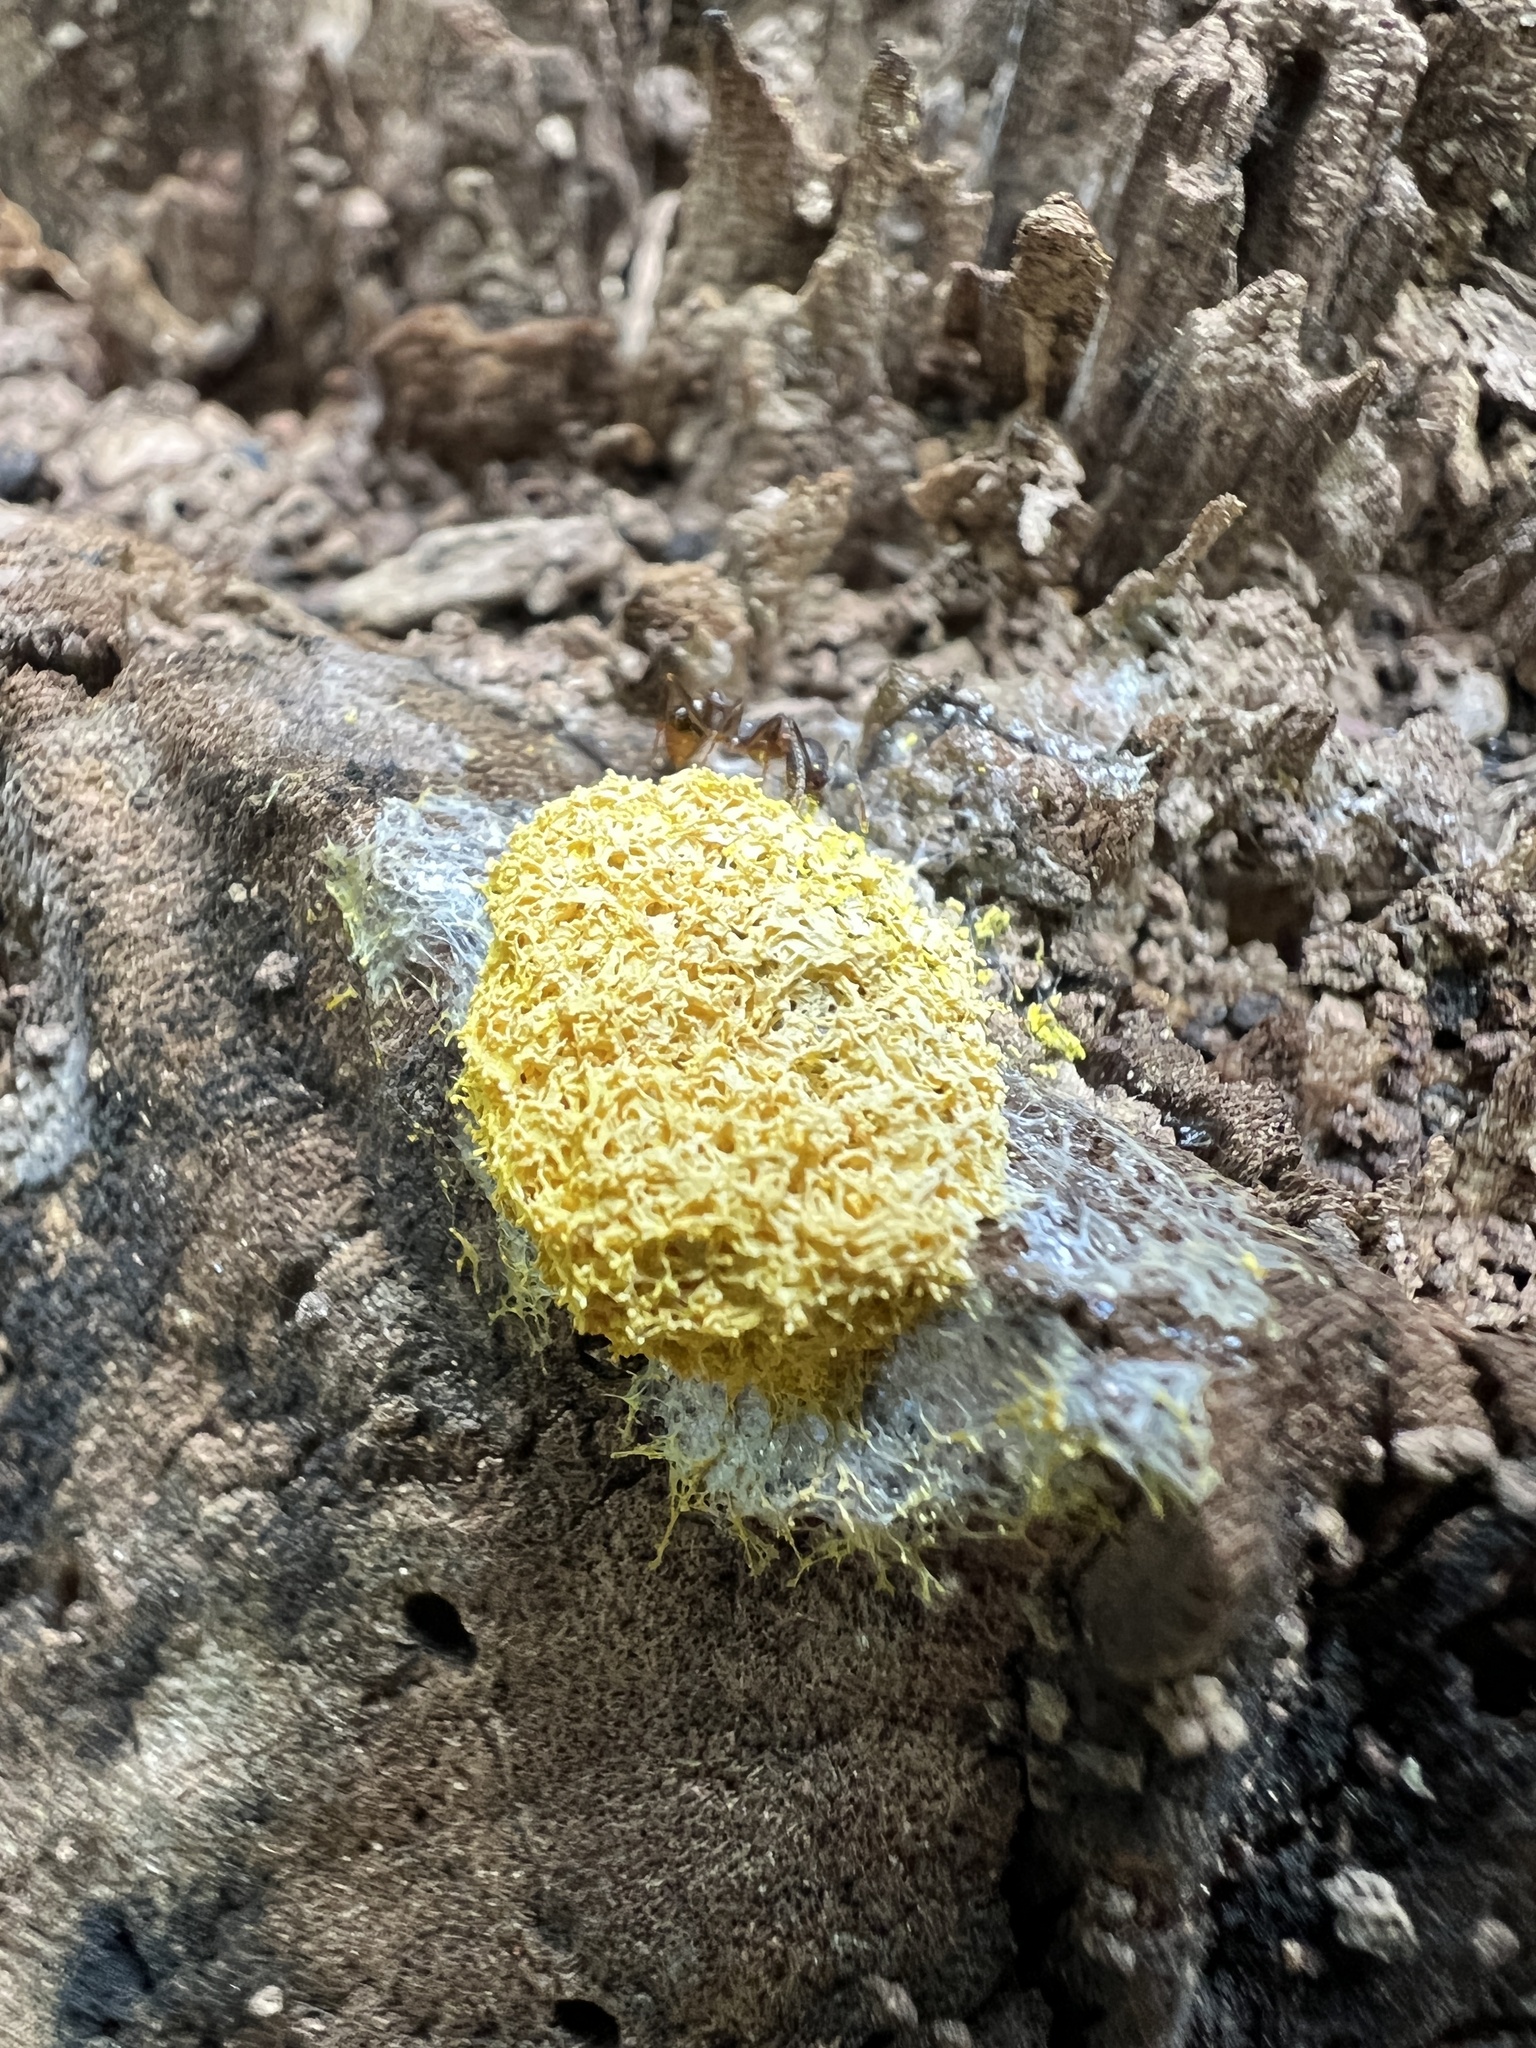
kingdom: Protozoa
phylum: Mycetozoa
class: Myxomycetes
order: Physarales
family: Physaraceae
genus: Fuligo
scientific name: Fuligo septica
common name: Dog vomit slime mold
